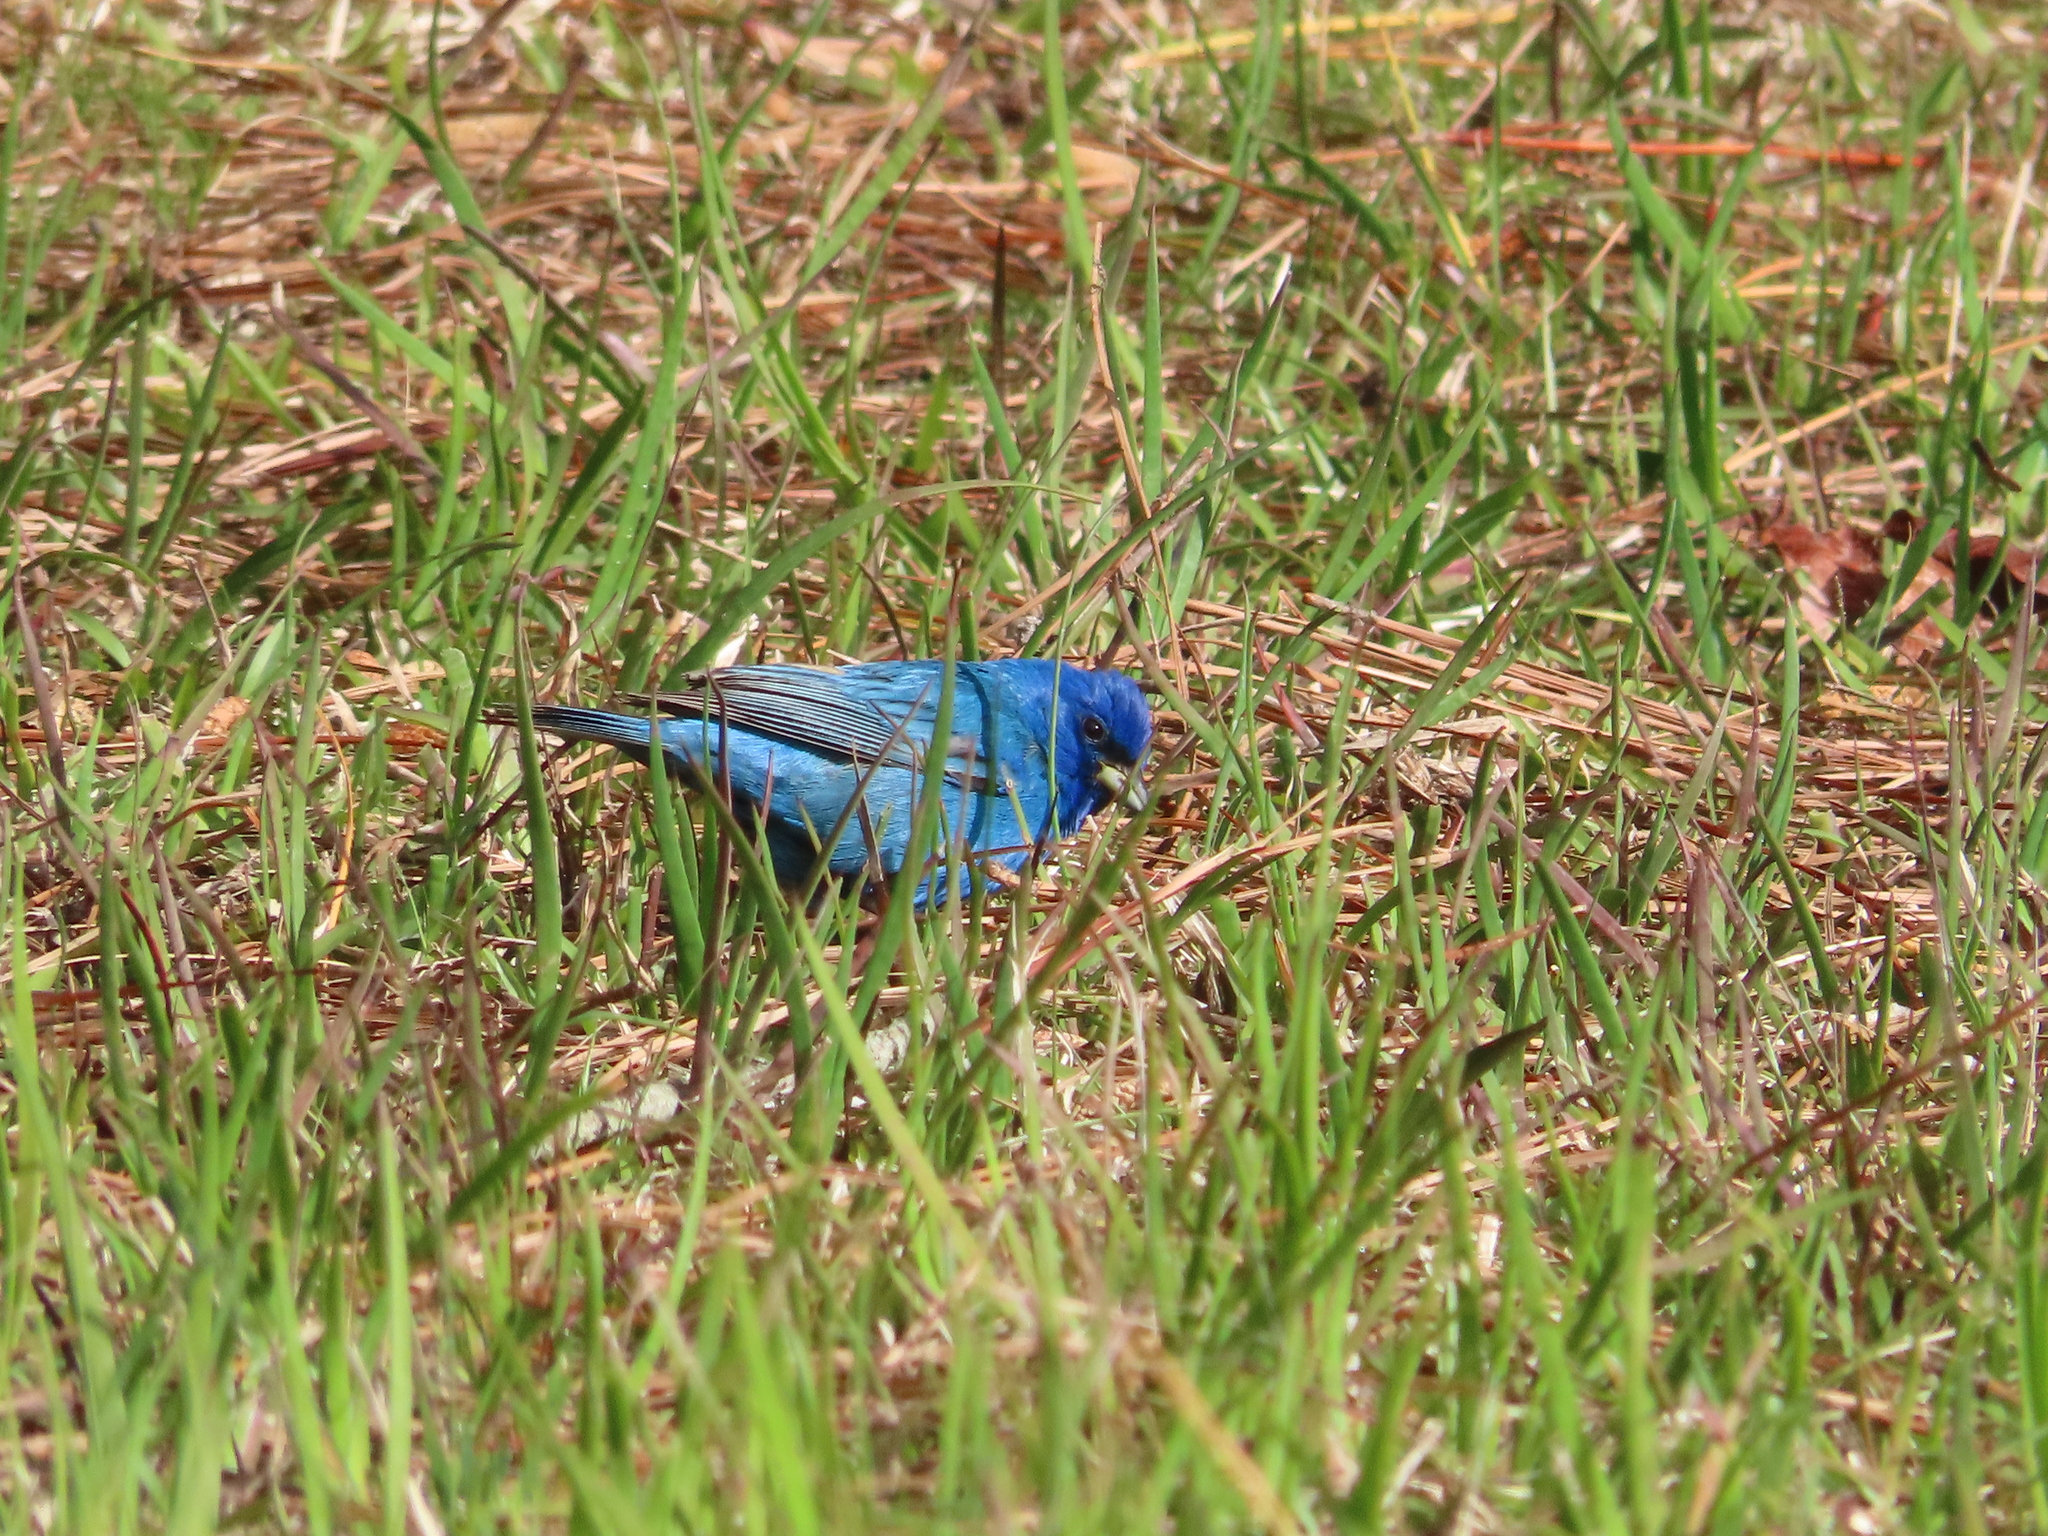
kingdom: Animalia
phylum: Chordata
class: Aves
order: Passeriformes
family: Cardinalidae
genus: Passerina
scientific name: Passerina cyanea
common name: Indigo bunting
